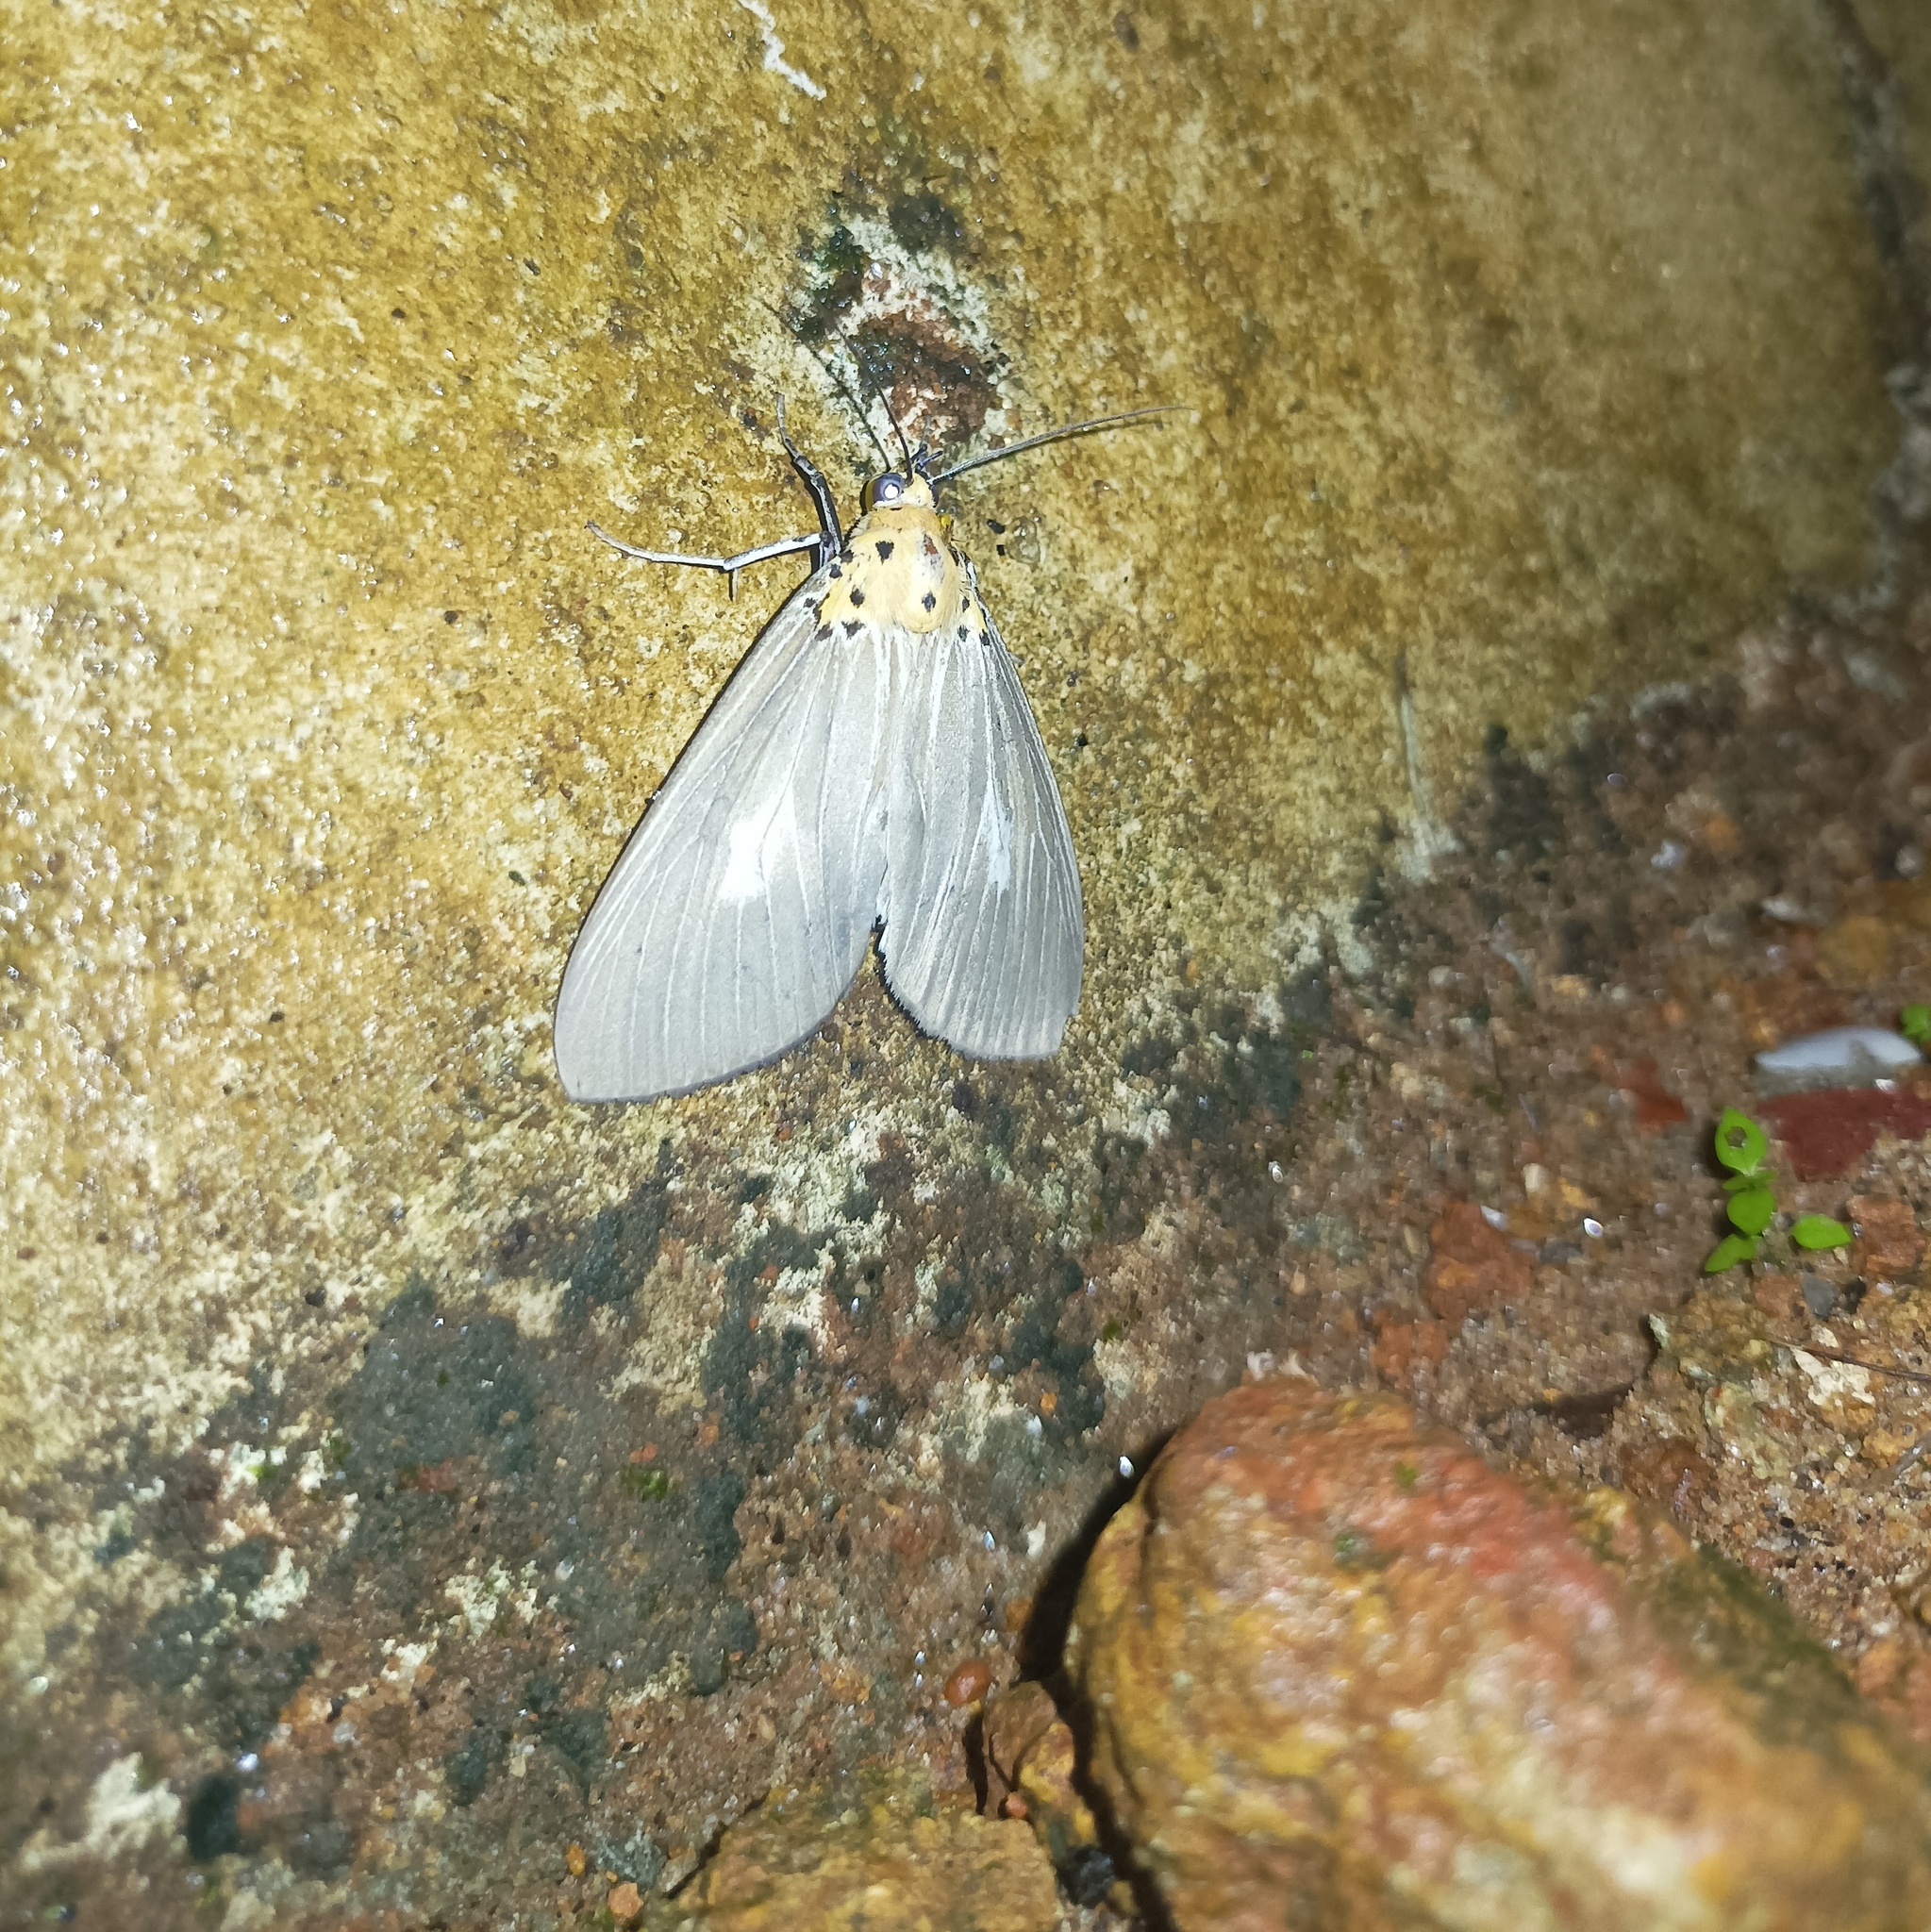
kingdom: Animalia
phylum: Arthropoda
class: Insecta
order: Lepidoptera
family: Erebidae
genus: Asota
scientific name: Asota canaraica
